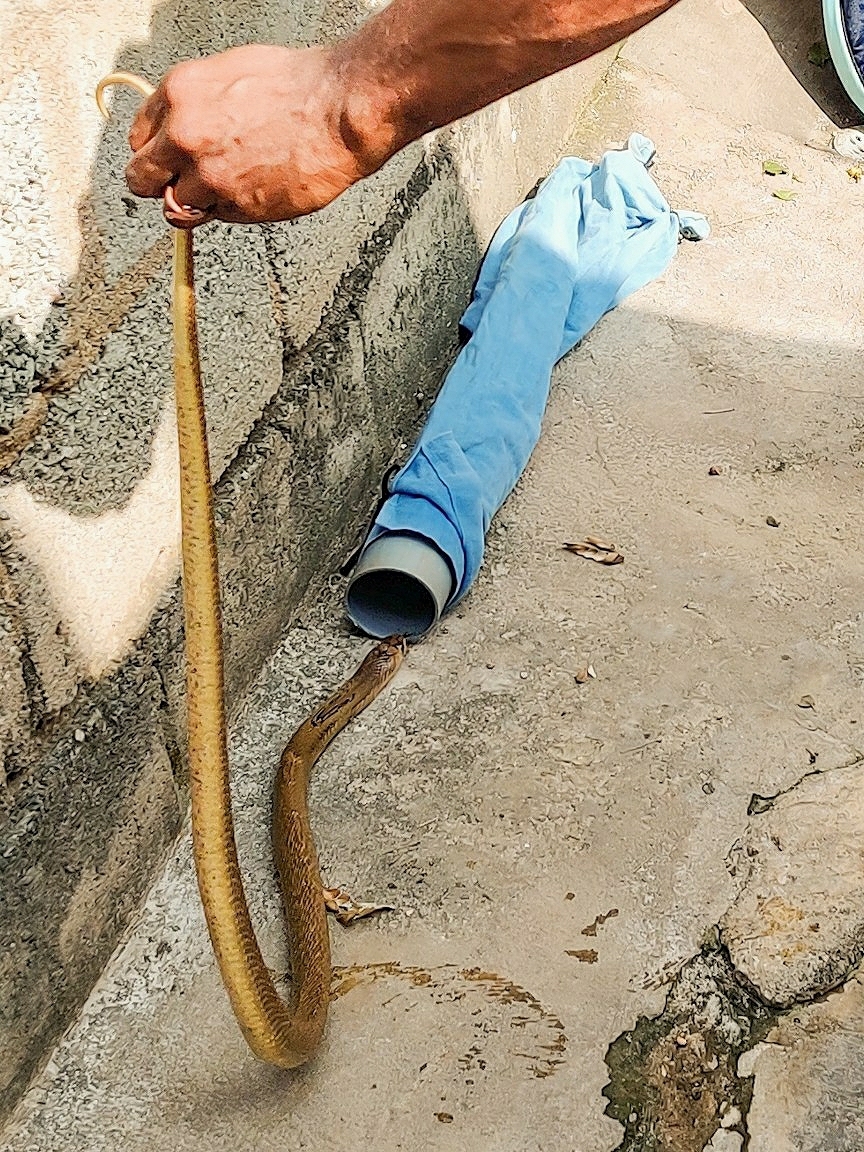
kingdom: Animalia
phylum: Chordata
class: Squamata
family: Elapidae
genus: Naja
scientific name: Naja naja
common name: Indian cobra
